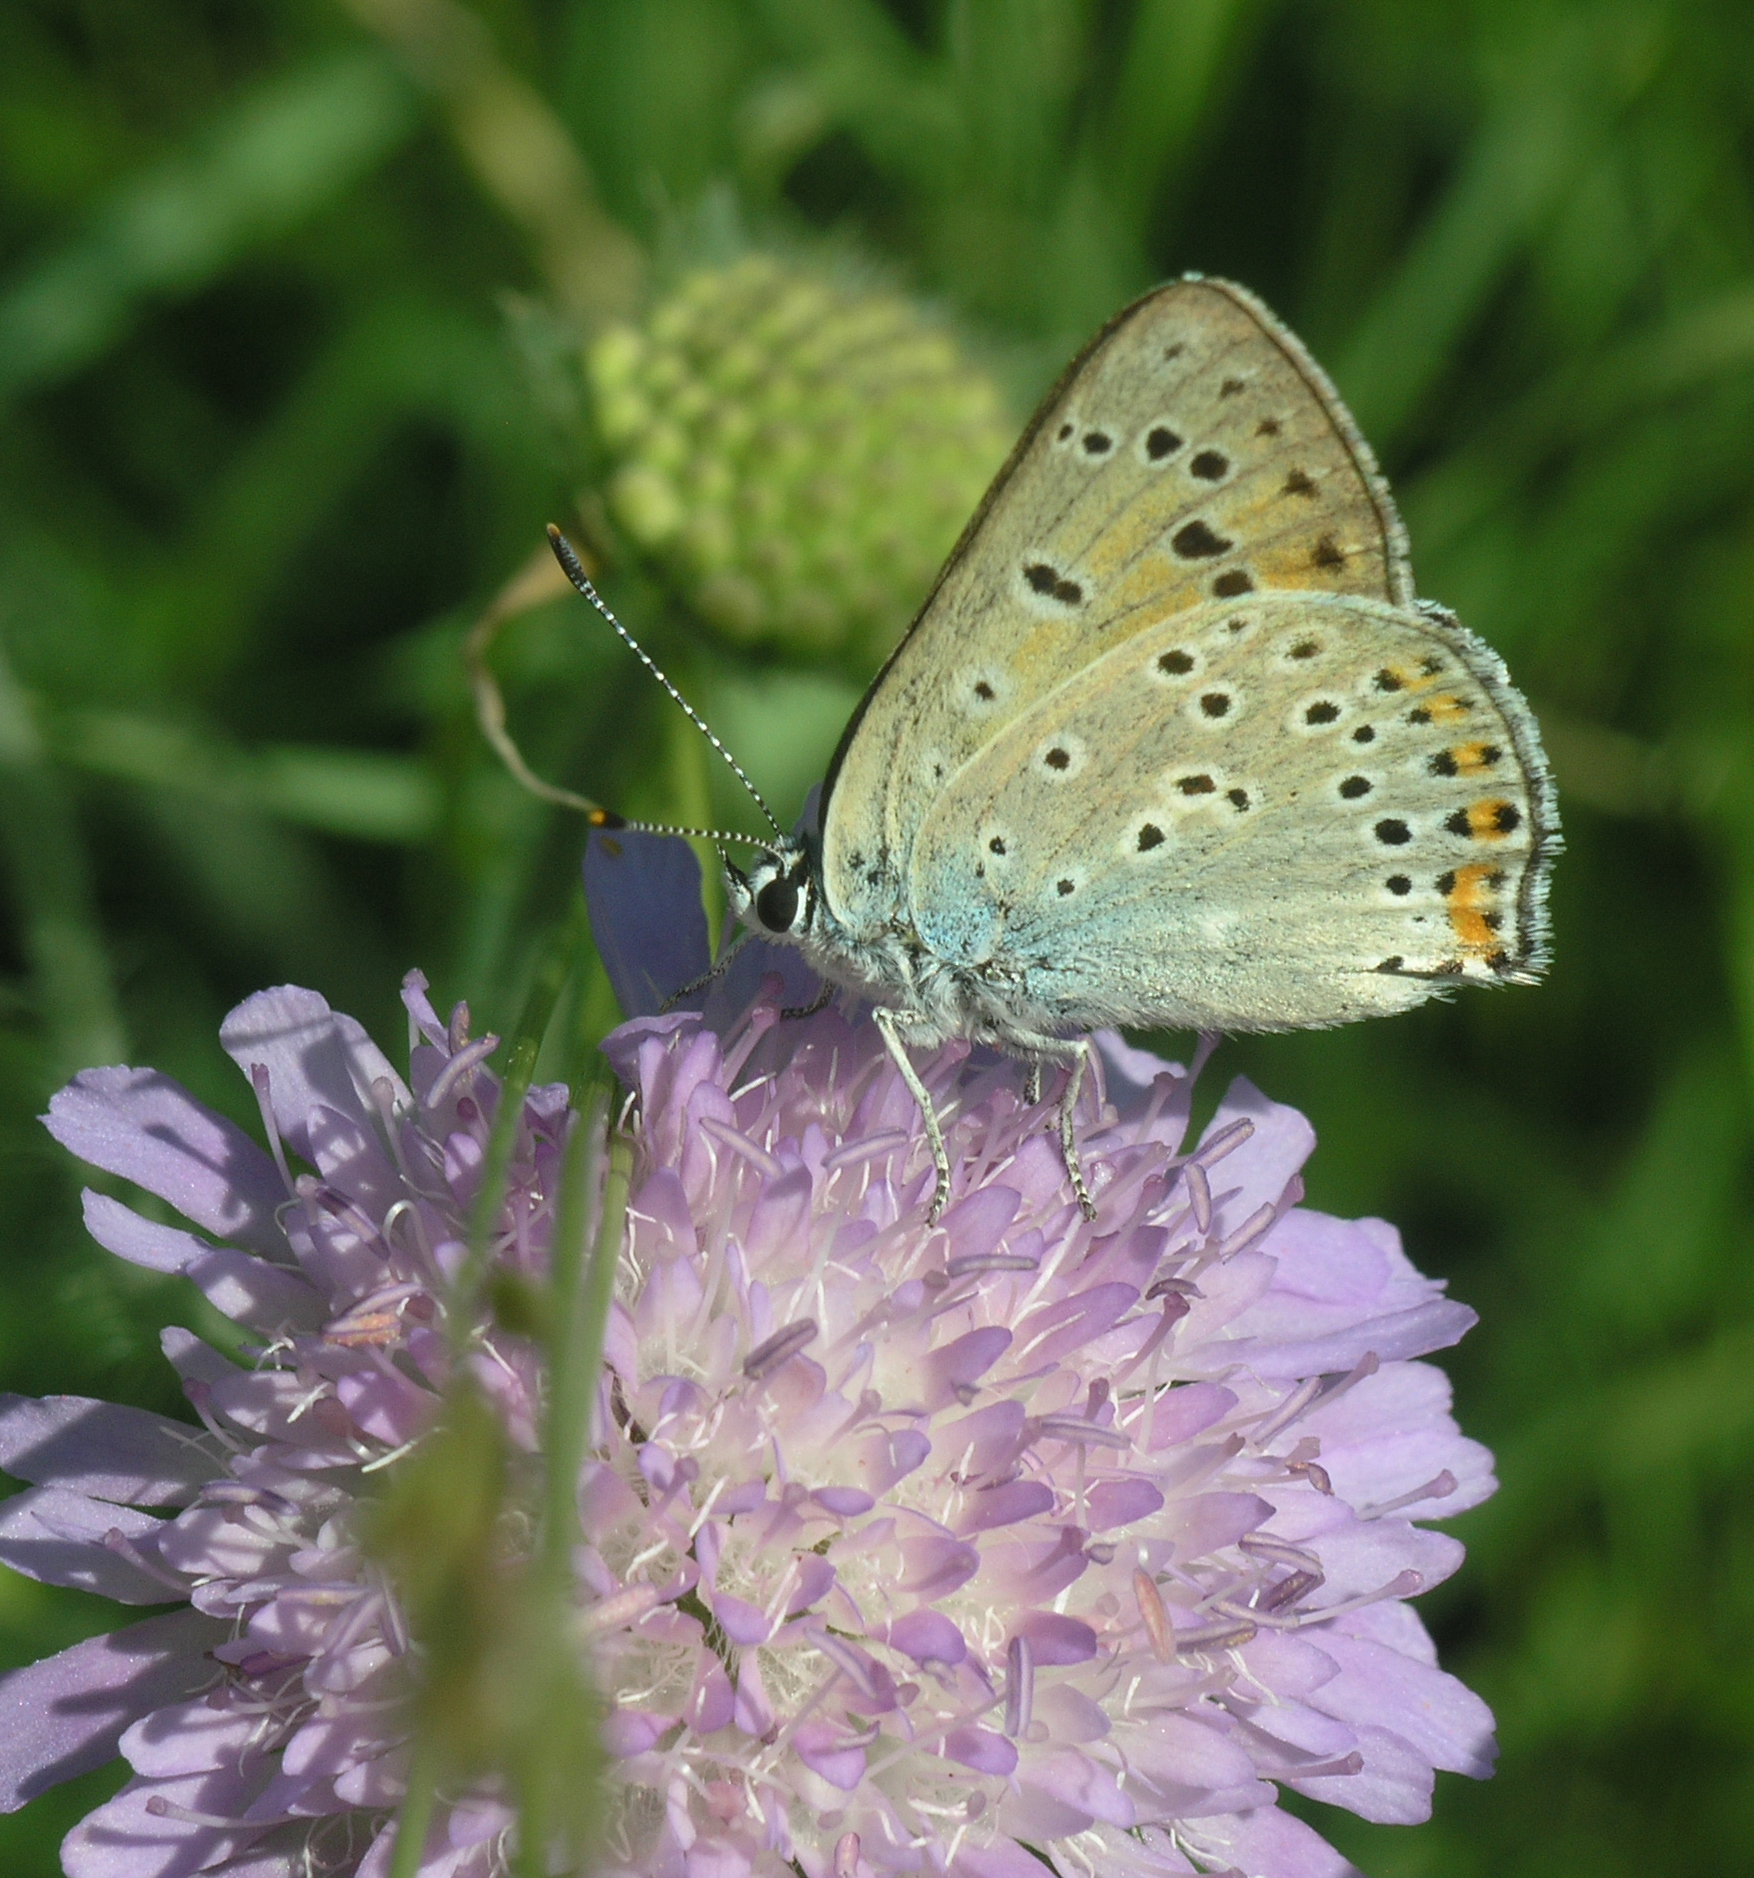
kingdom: Animalia
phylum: Arthropoda
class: Insecta
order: Lepidoptera
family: Lycaenidae
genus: Lycaena
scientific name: Lycaena alciphron
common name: Purple-shot copper
